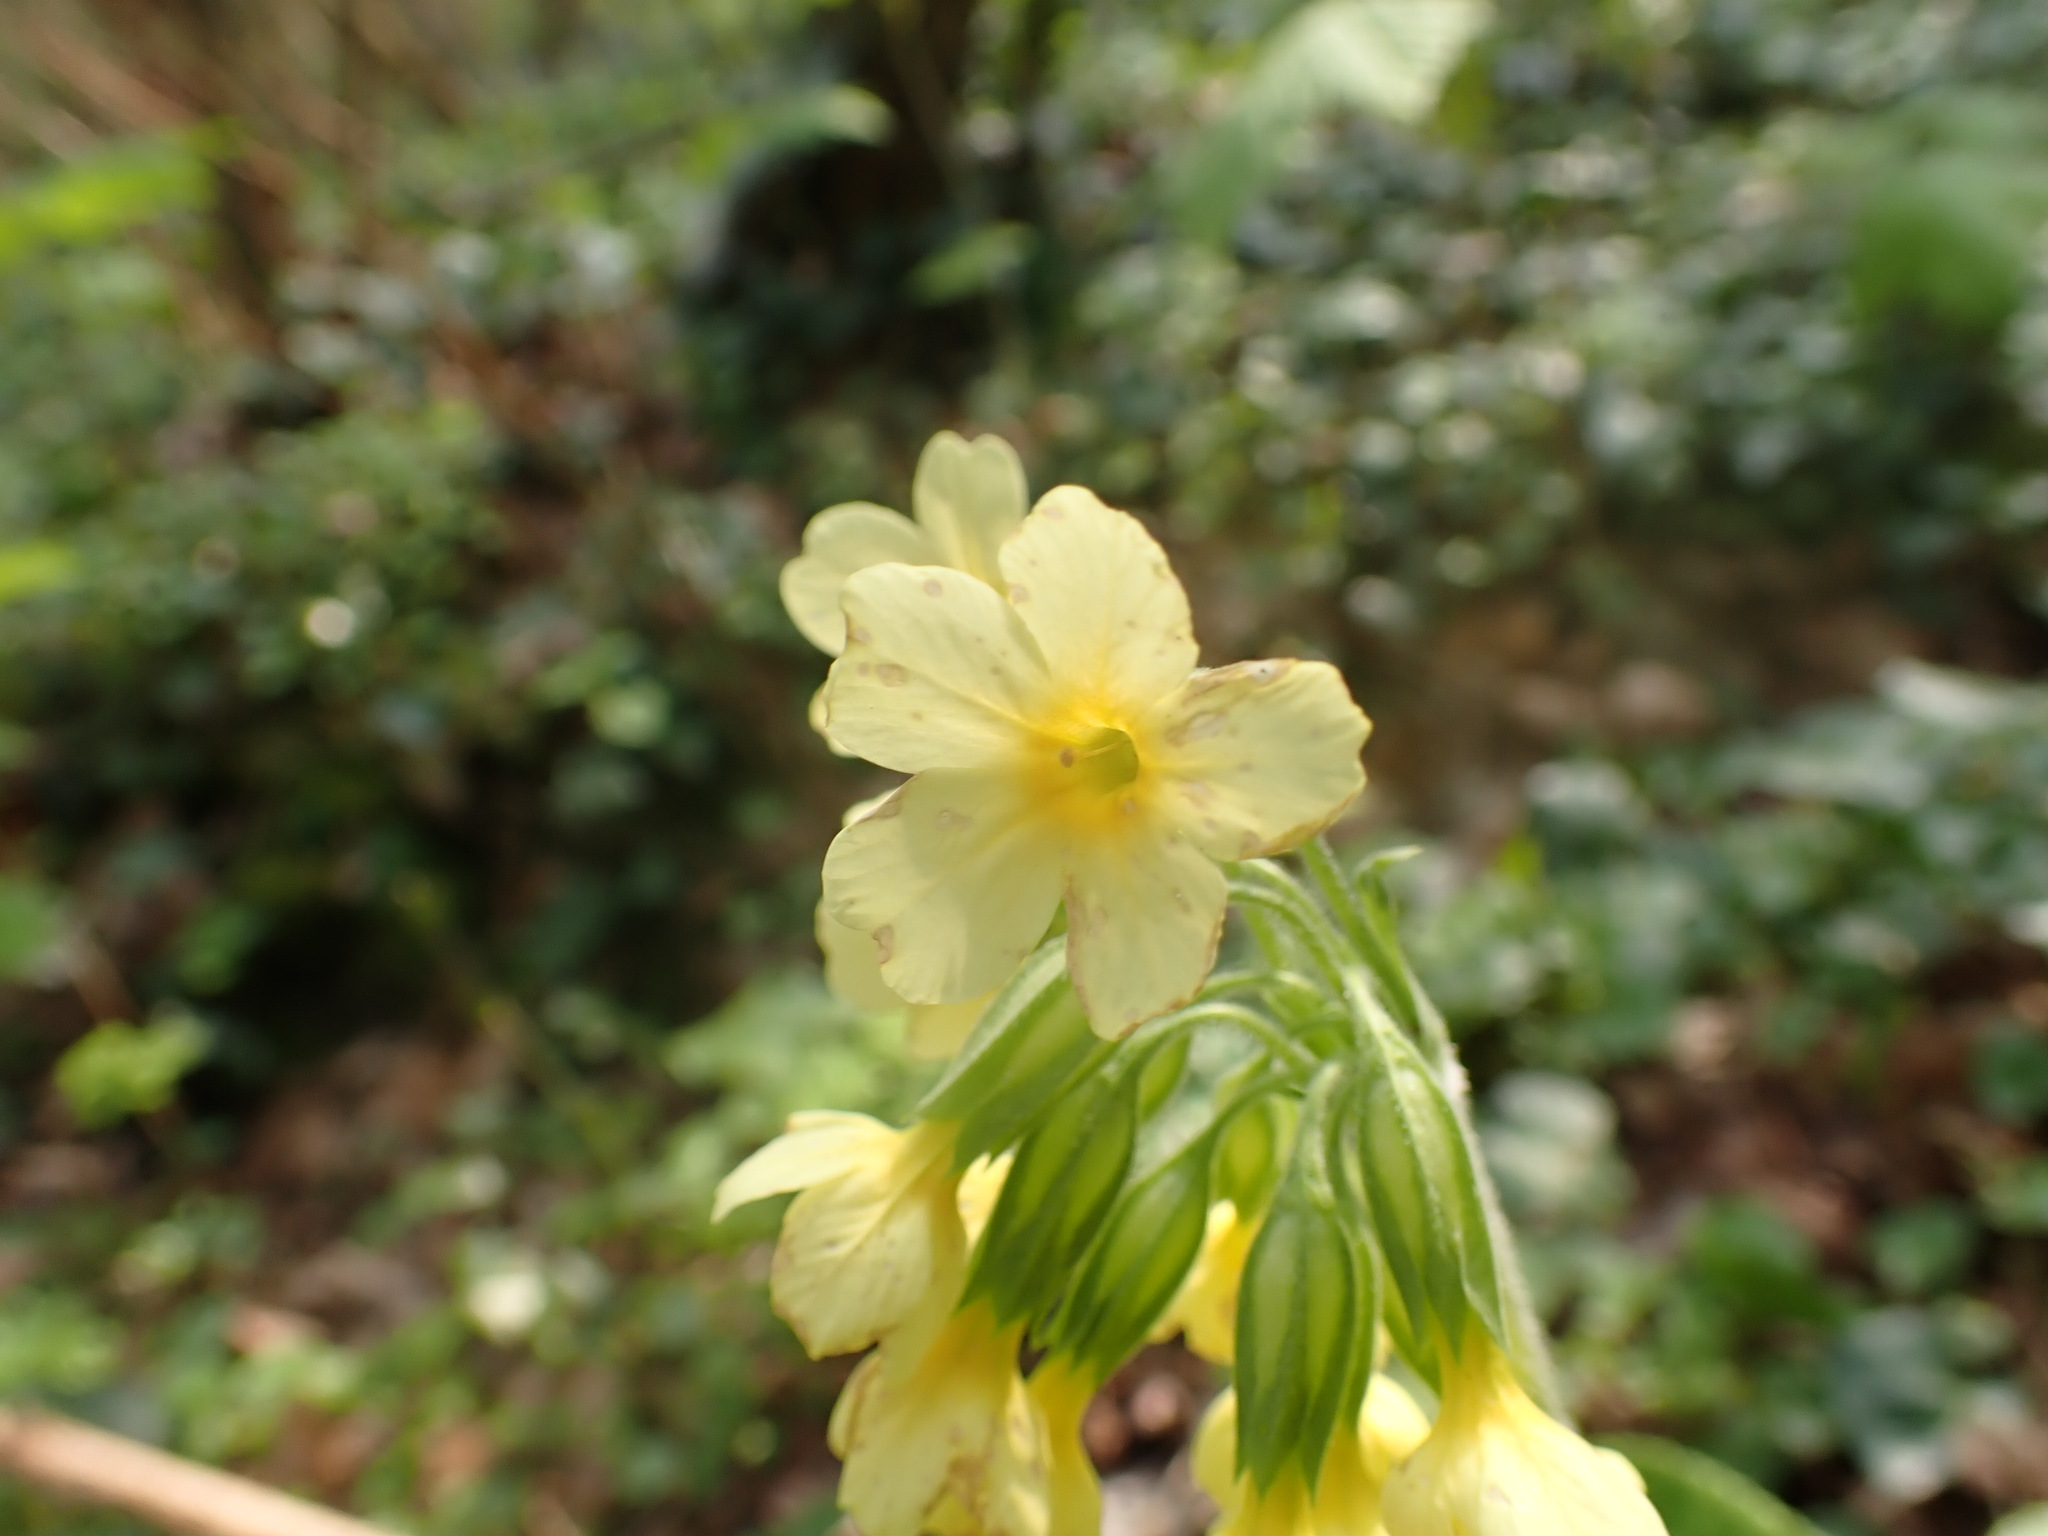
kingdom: Plantae
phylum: Tracheophyta
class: Magnoliopsida
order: Ericales
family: Primulaceae
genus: Primula
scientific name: Primula elatior
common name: Oxlip
